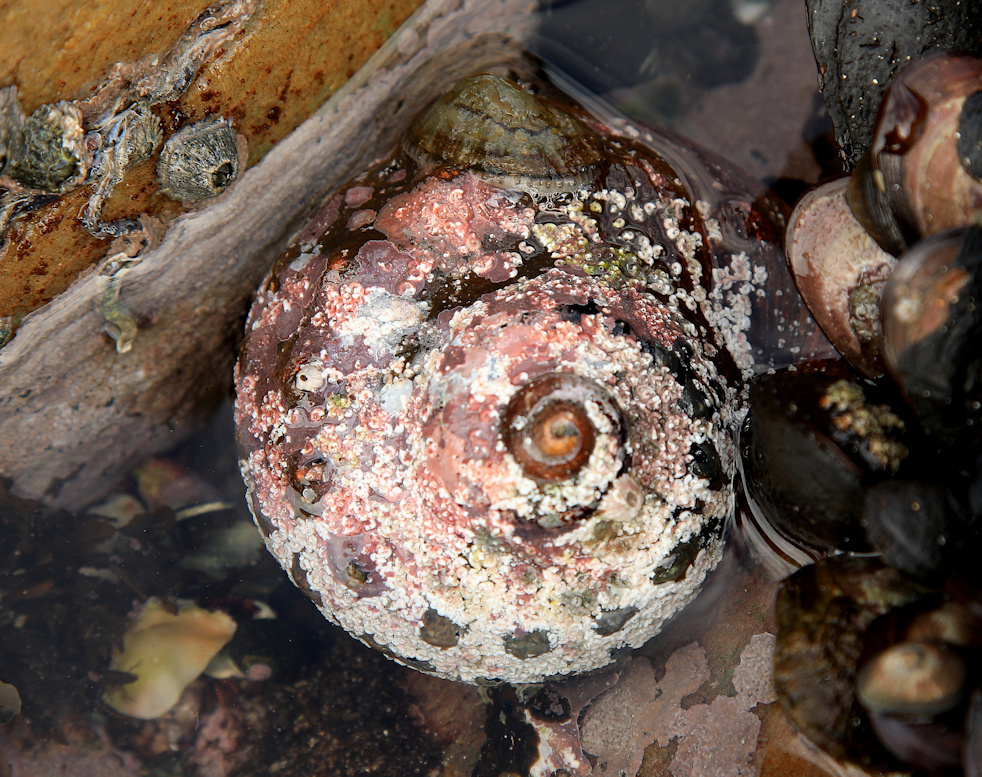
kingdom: Animalia
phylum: Mollusca
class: Gastropoda
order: Trochida
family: Turbinidae
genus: Turbo
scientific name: Turbo sarmaticus
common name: South african turban
